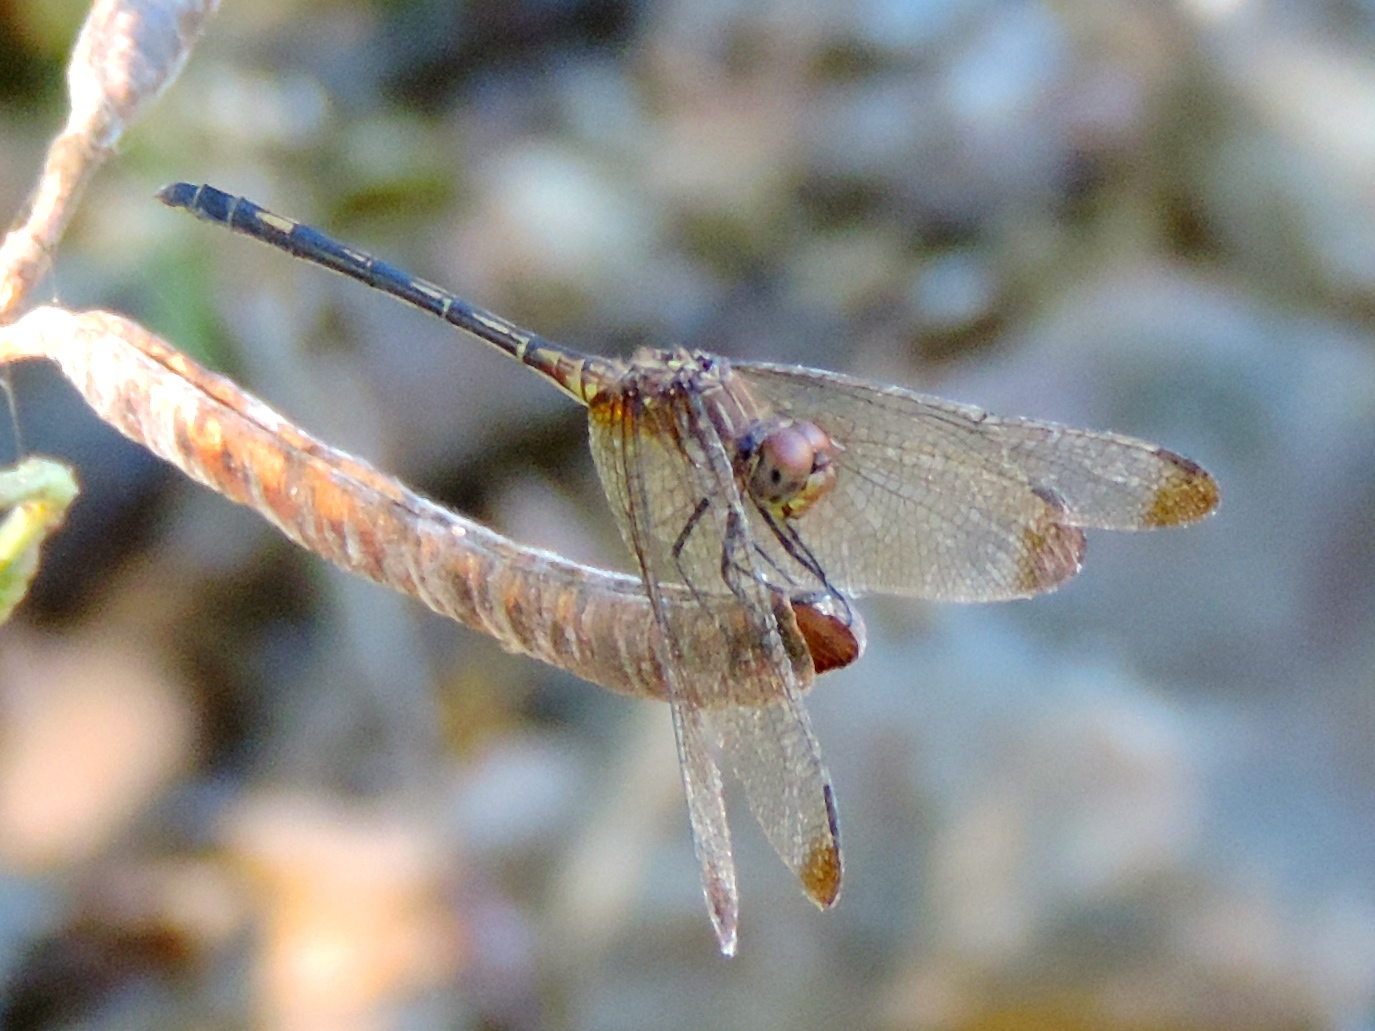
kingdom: Animalia
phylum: Arthropoda
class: Insecta
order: Odonata
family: Libellulidae
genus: Dythemis
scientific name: Dythemis sterilis
